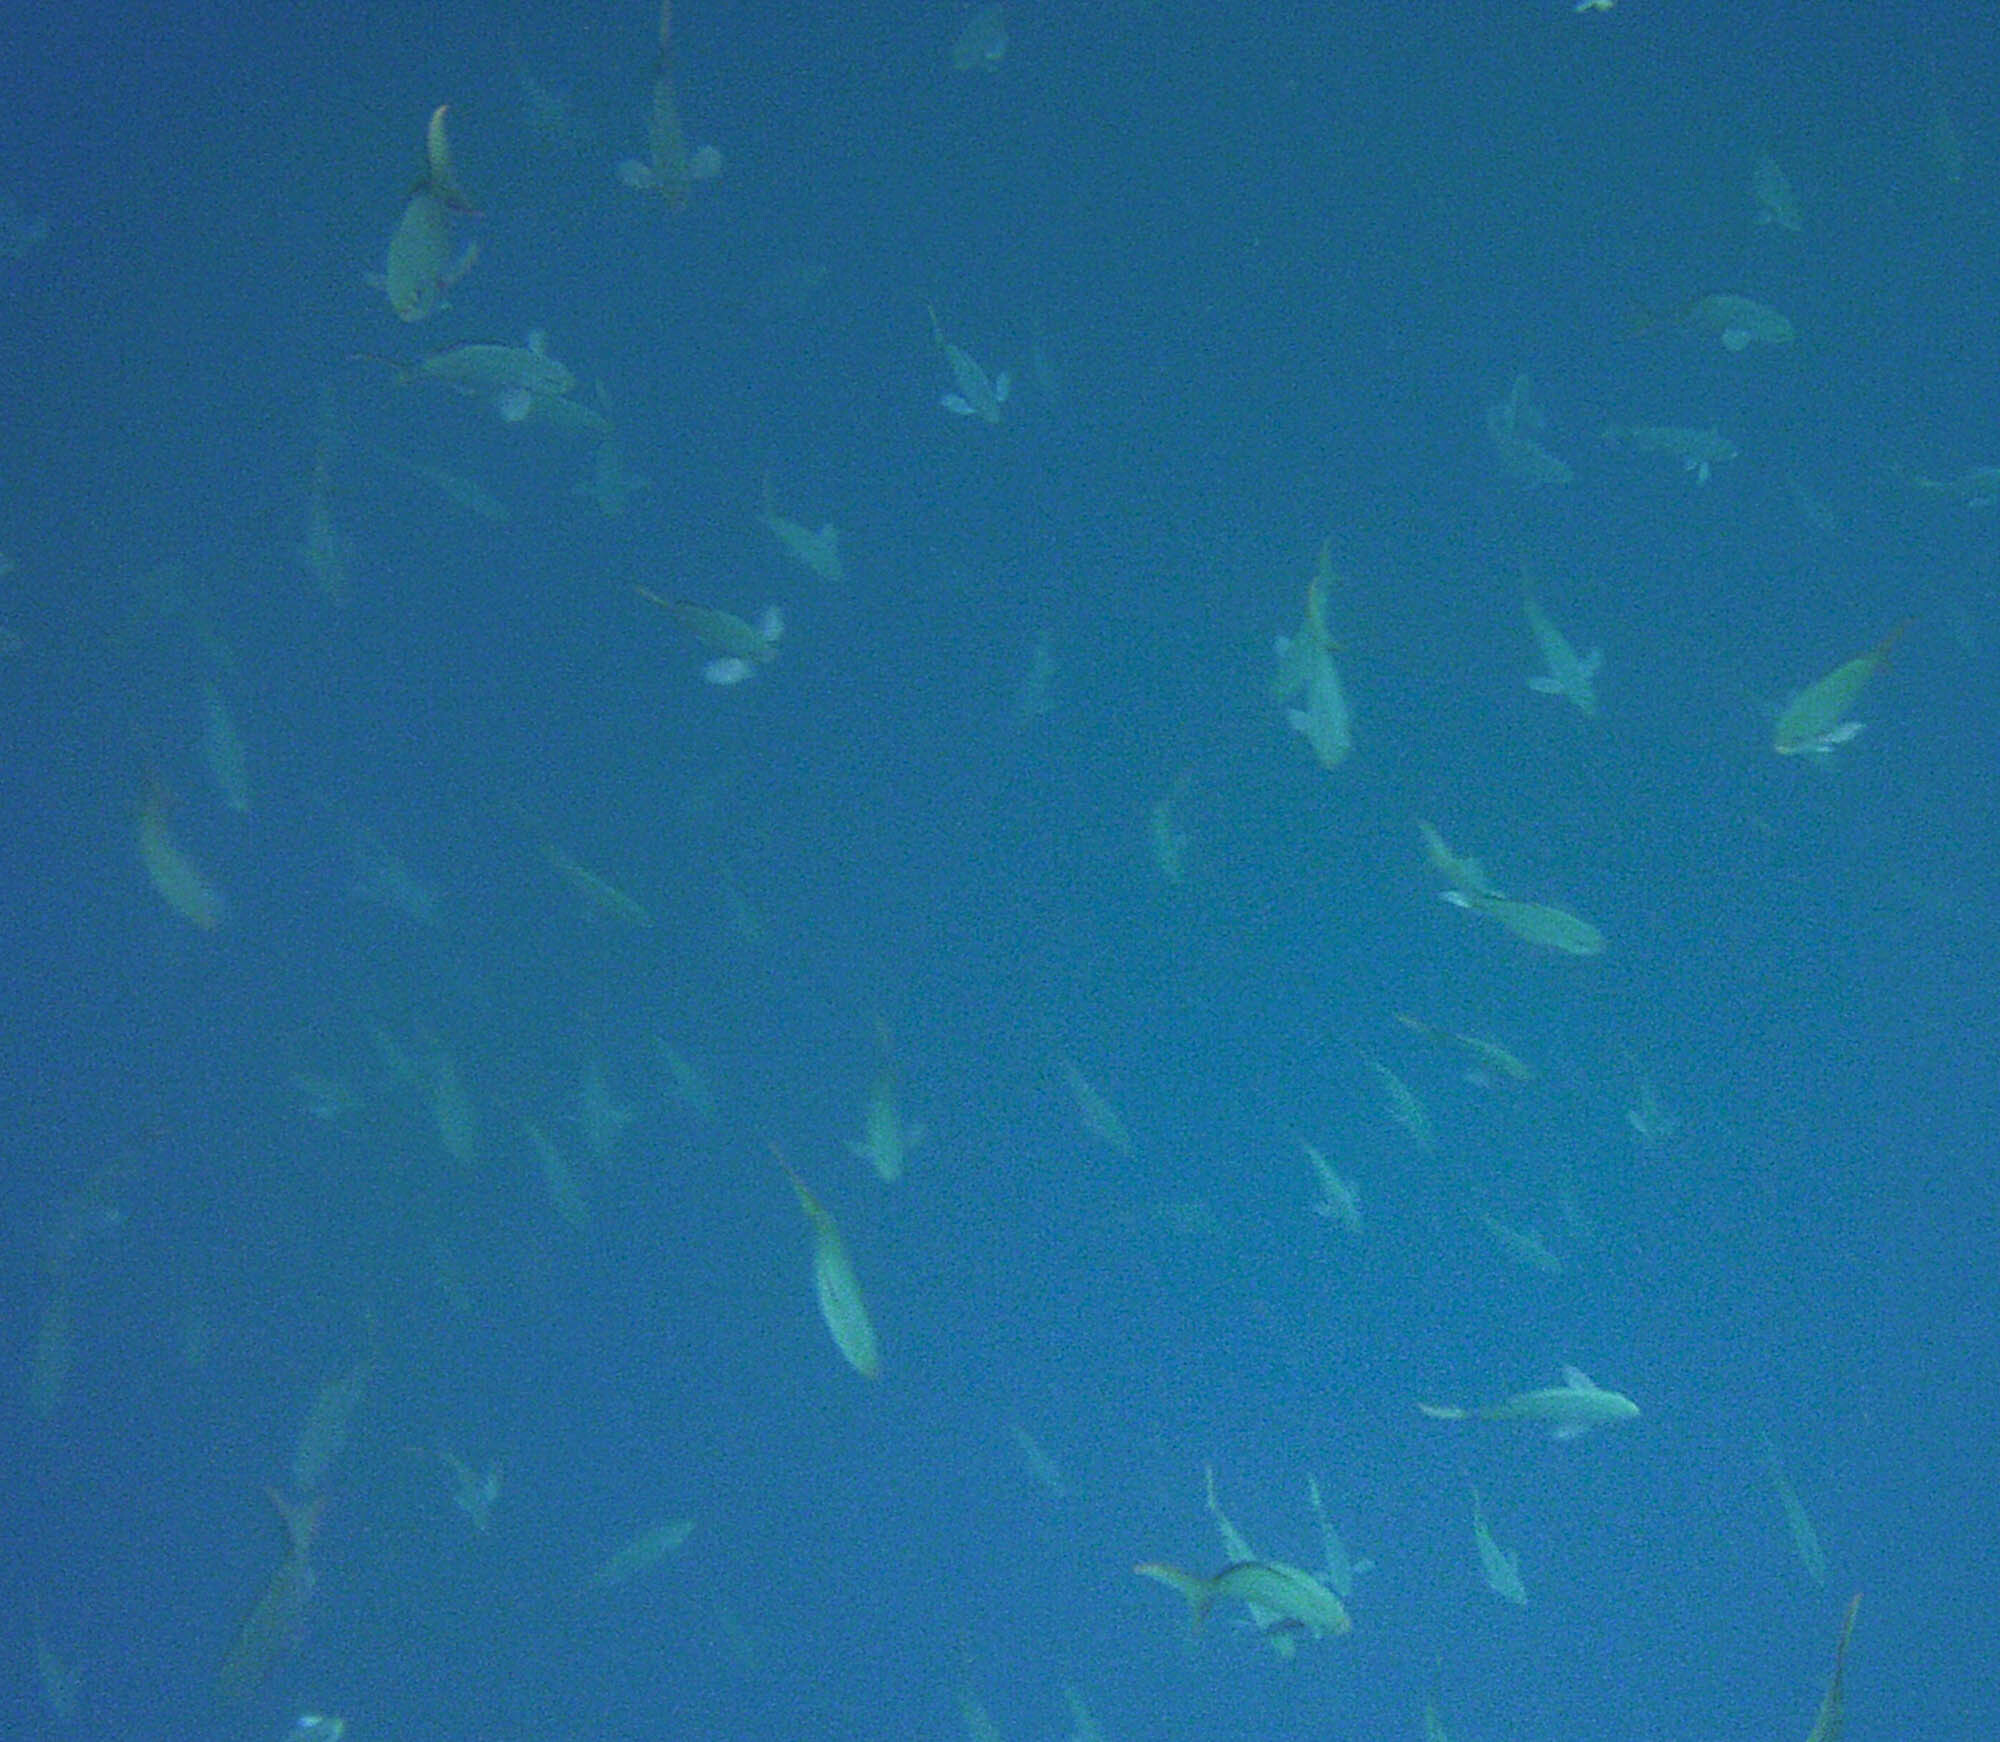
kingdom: Animalia
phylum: Chordata
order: Perciformes
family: Serranidae
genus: Paranthias
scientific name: Paranthias colonus
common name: Pacific creole-fish
